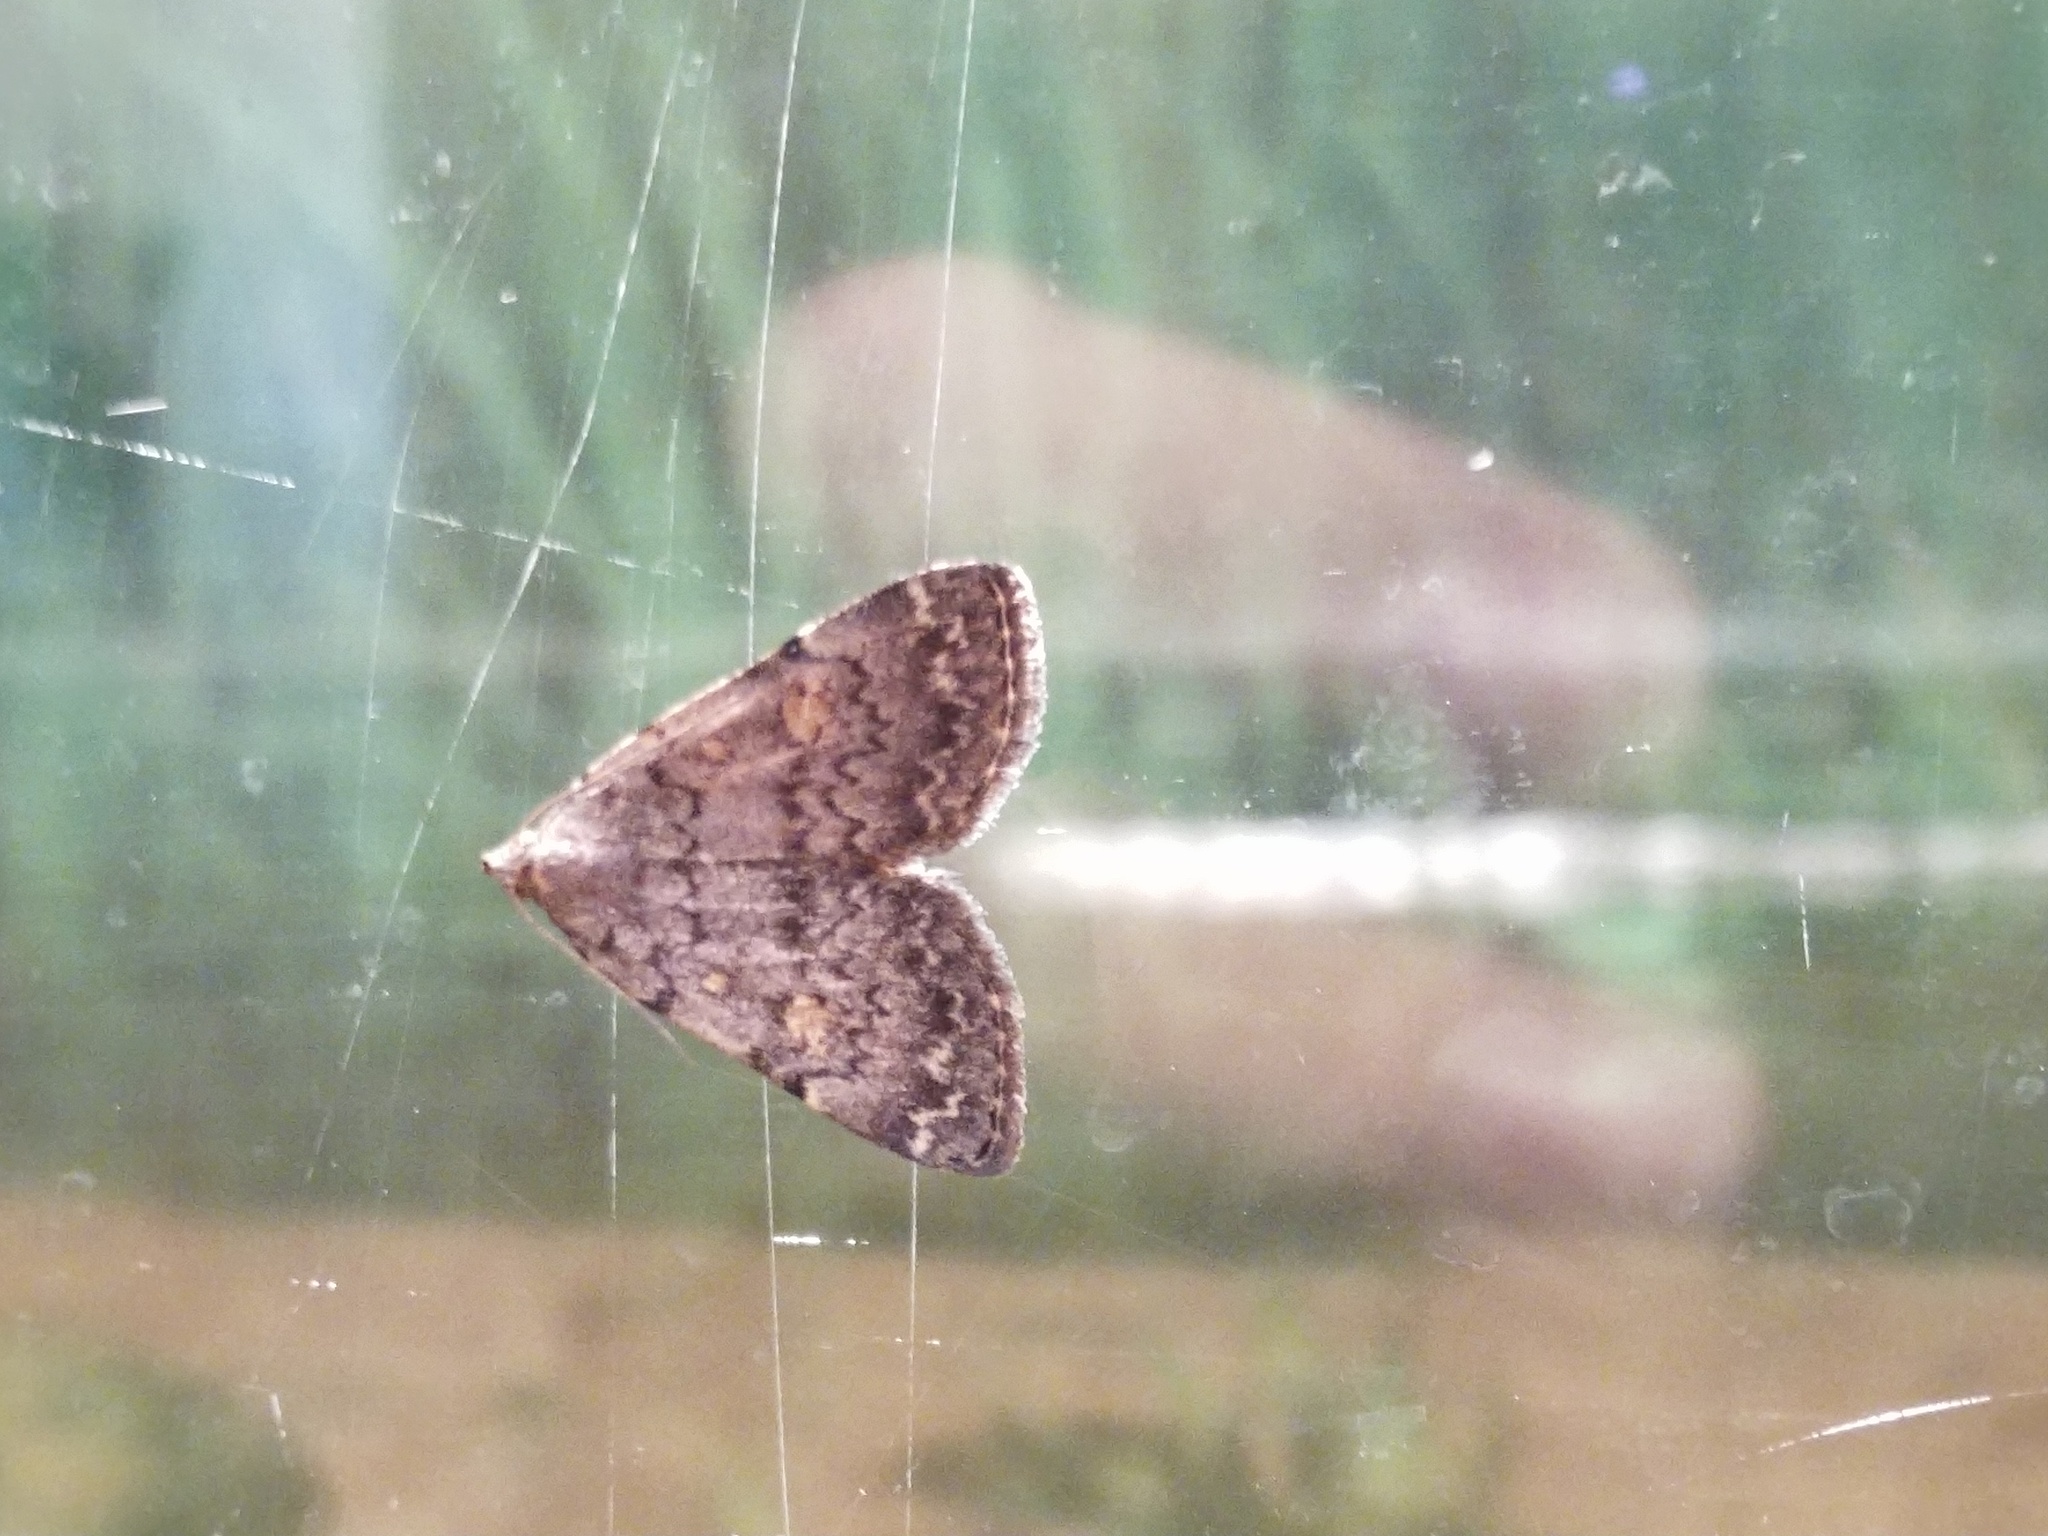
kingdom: Animalia
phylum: Arthropoda
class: Insecta
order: Lepidoptera
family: Erebidae
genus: Idia
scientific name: Idia aemula
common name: Common idia moth
